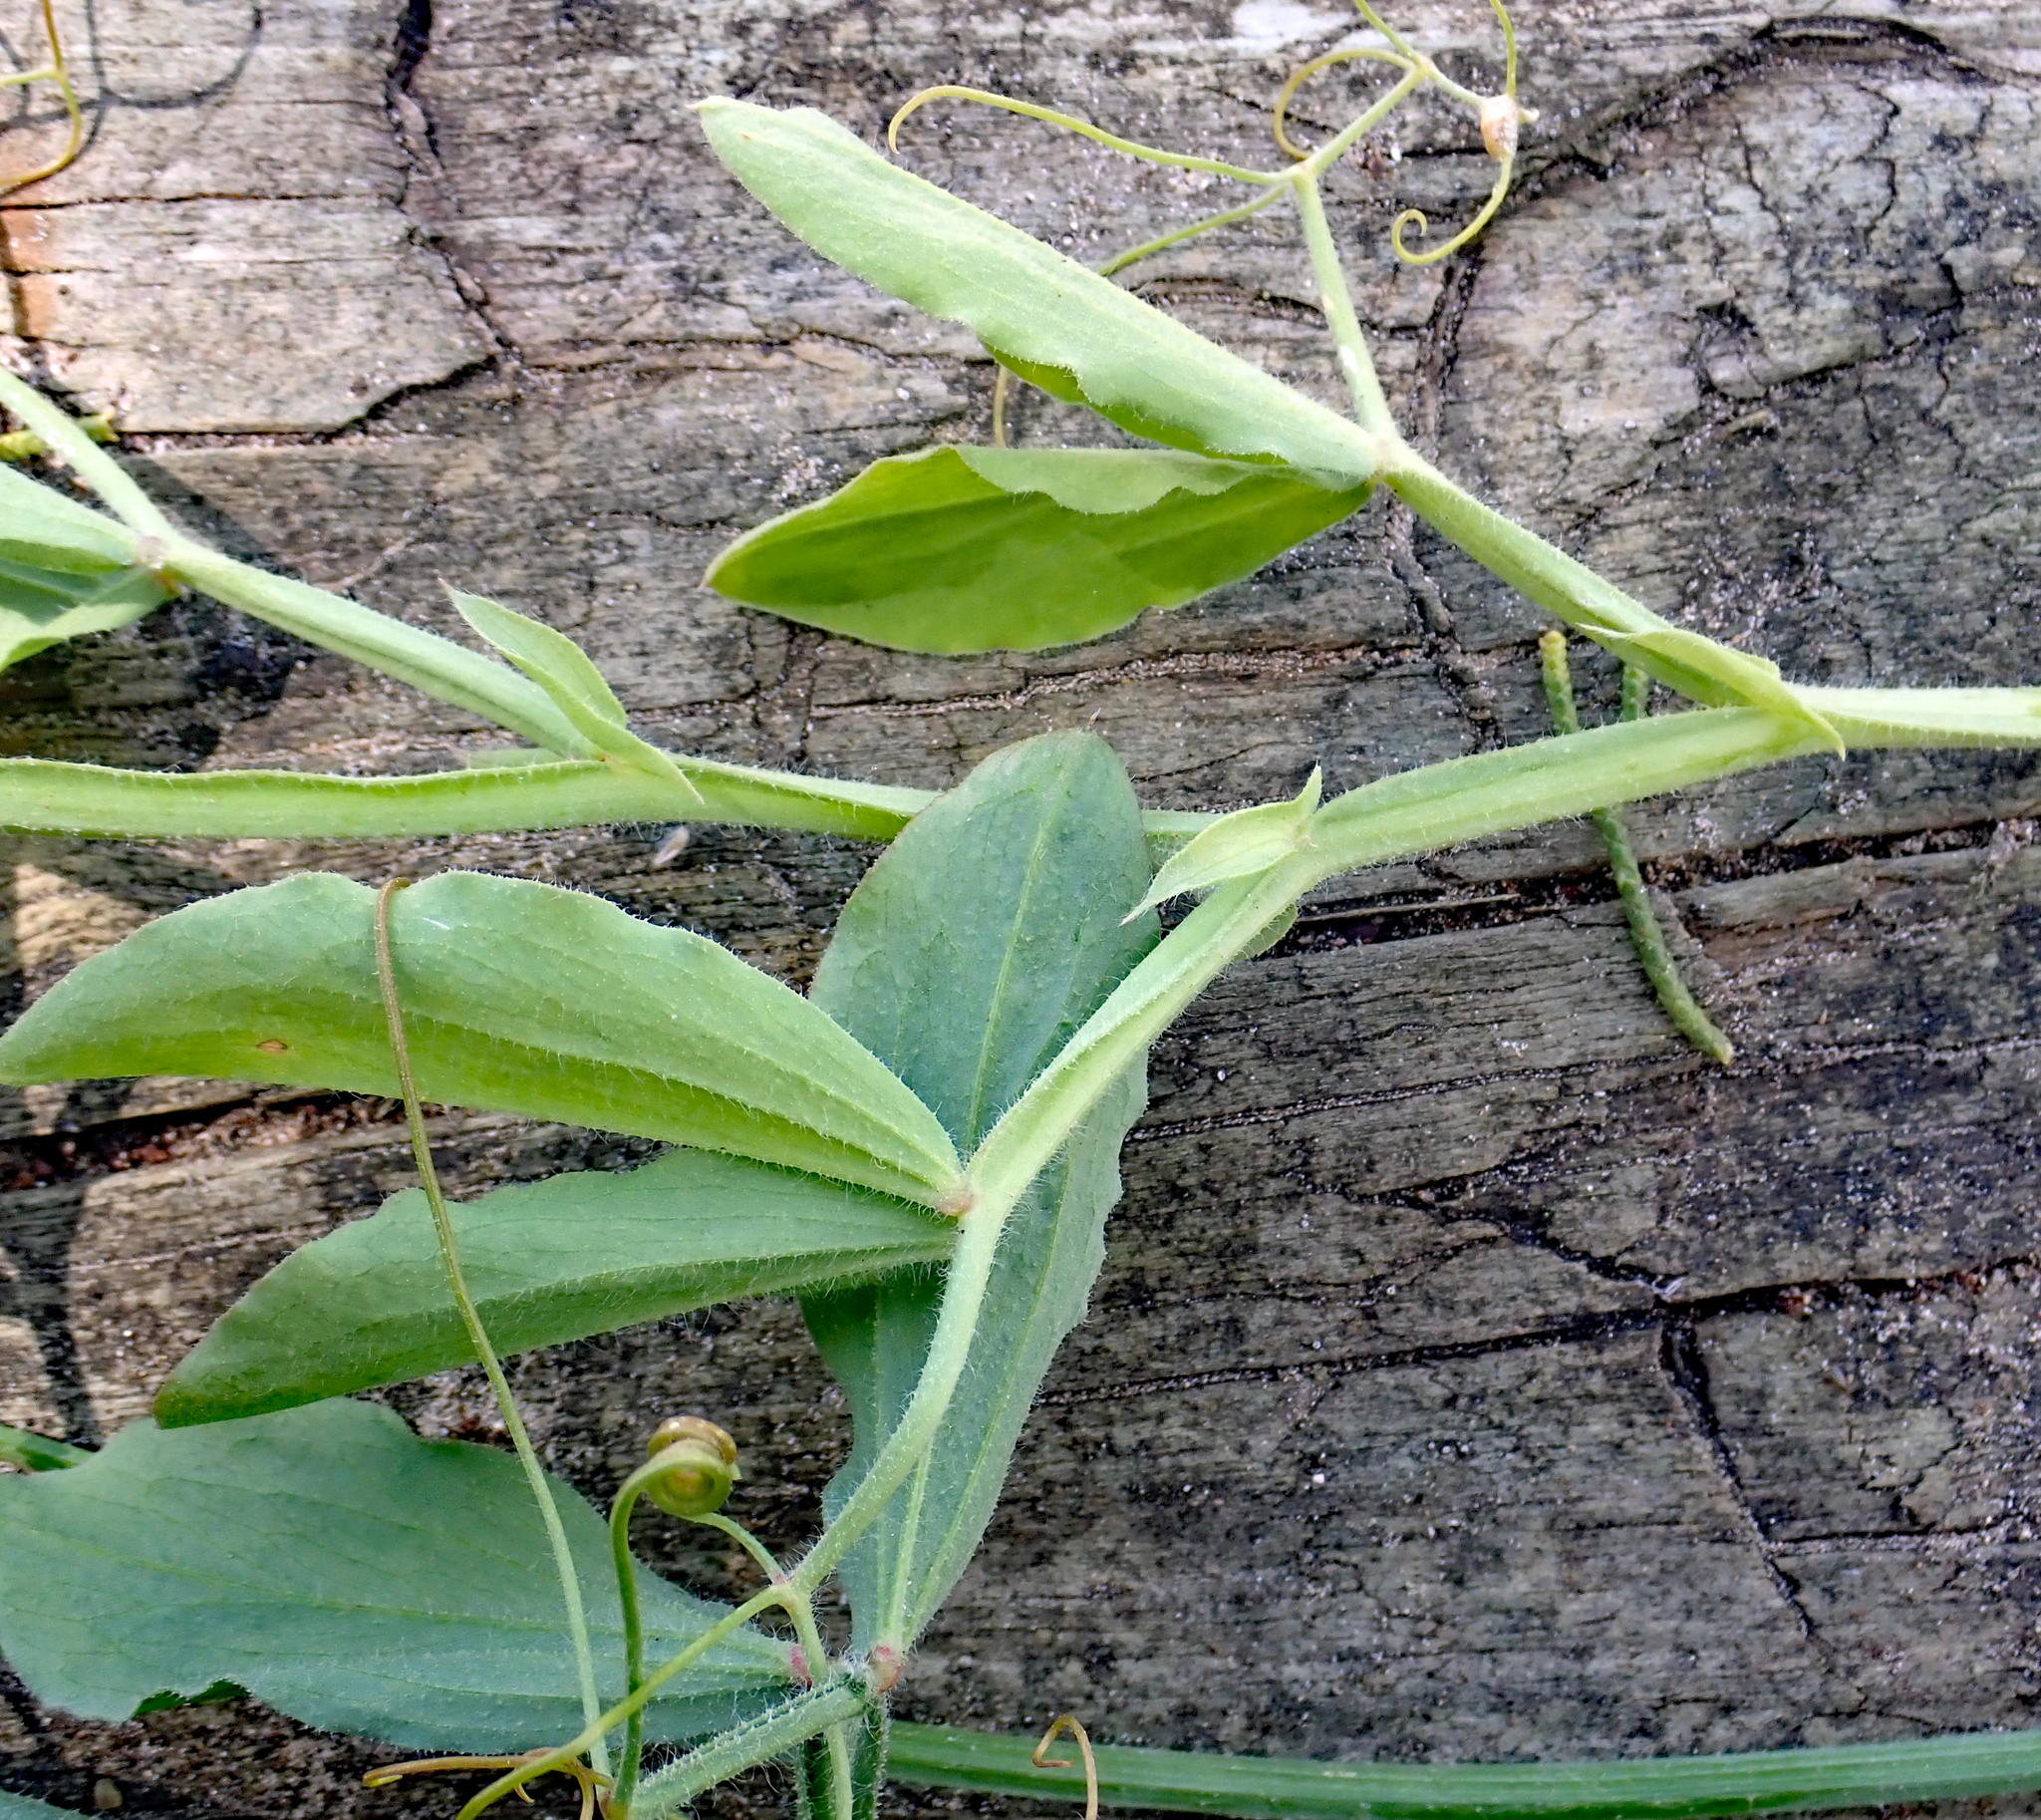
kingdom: Plantae
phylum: Tracheophyta
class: Magnoliopsida
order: Fabales
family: Fabaceae
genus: Lathyrus
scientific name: Lathyrus odoratus
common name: Sweet pea
